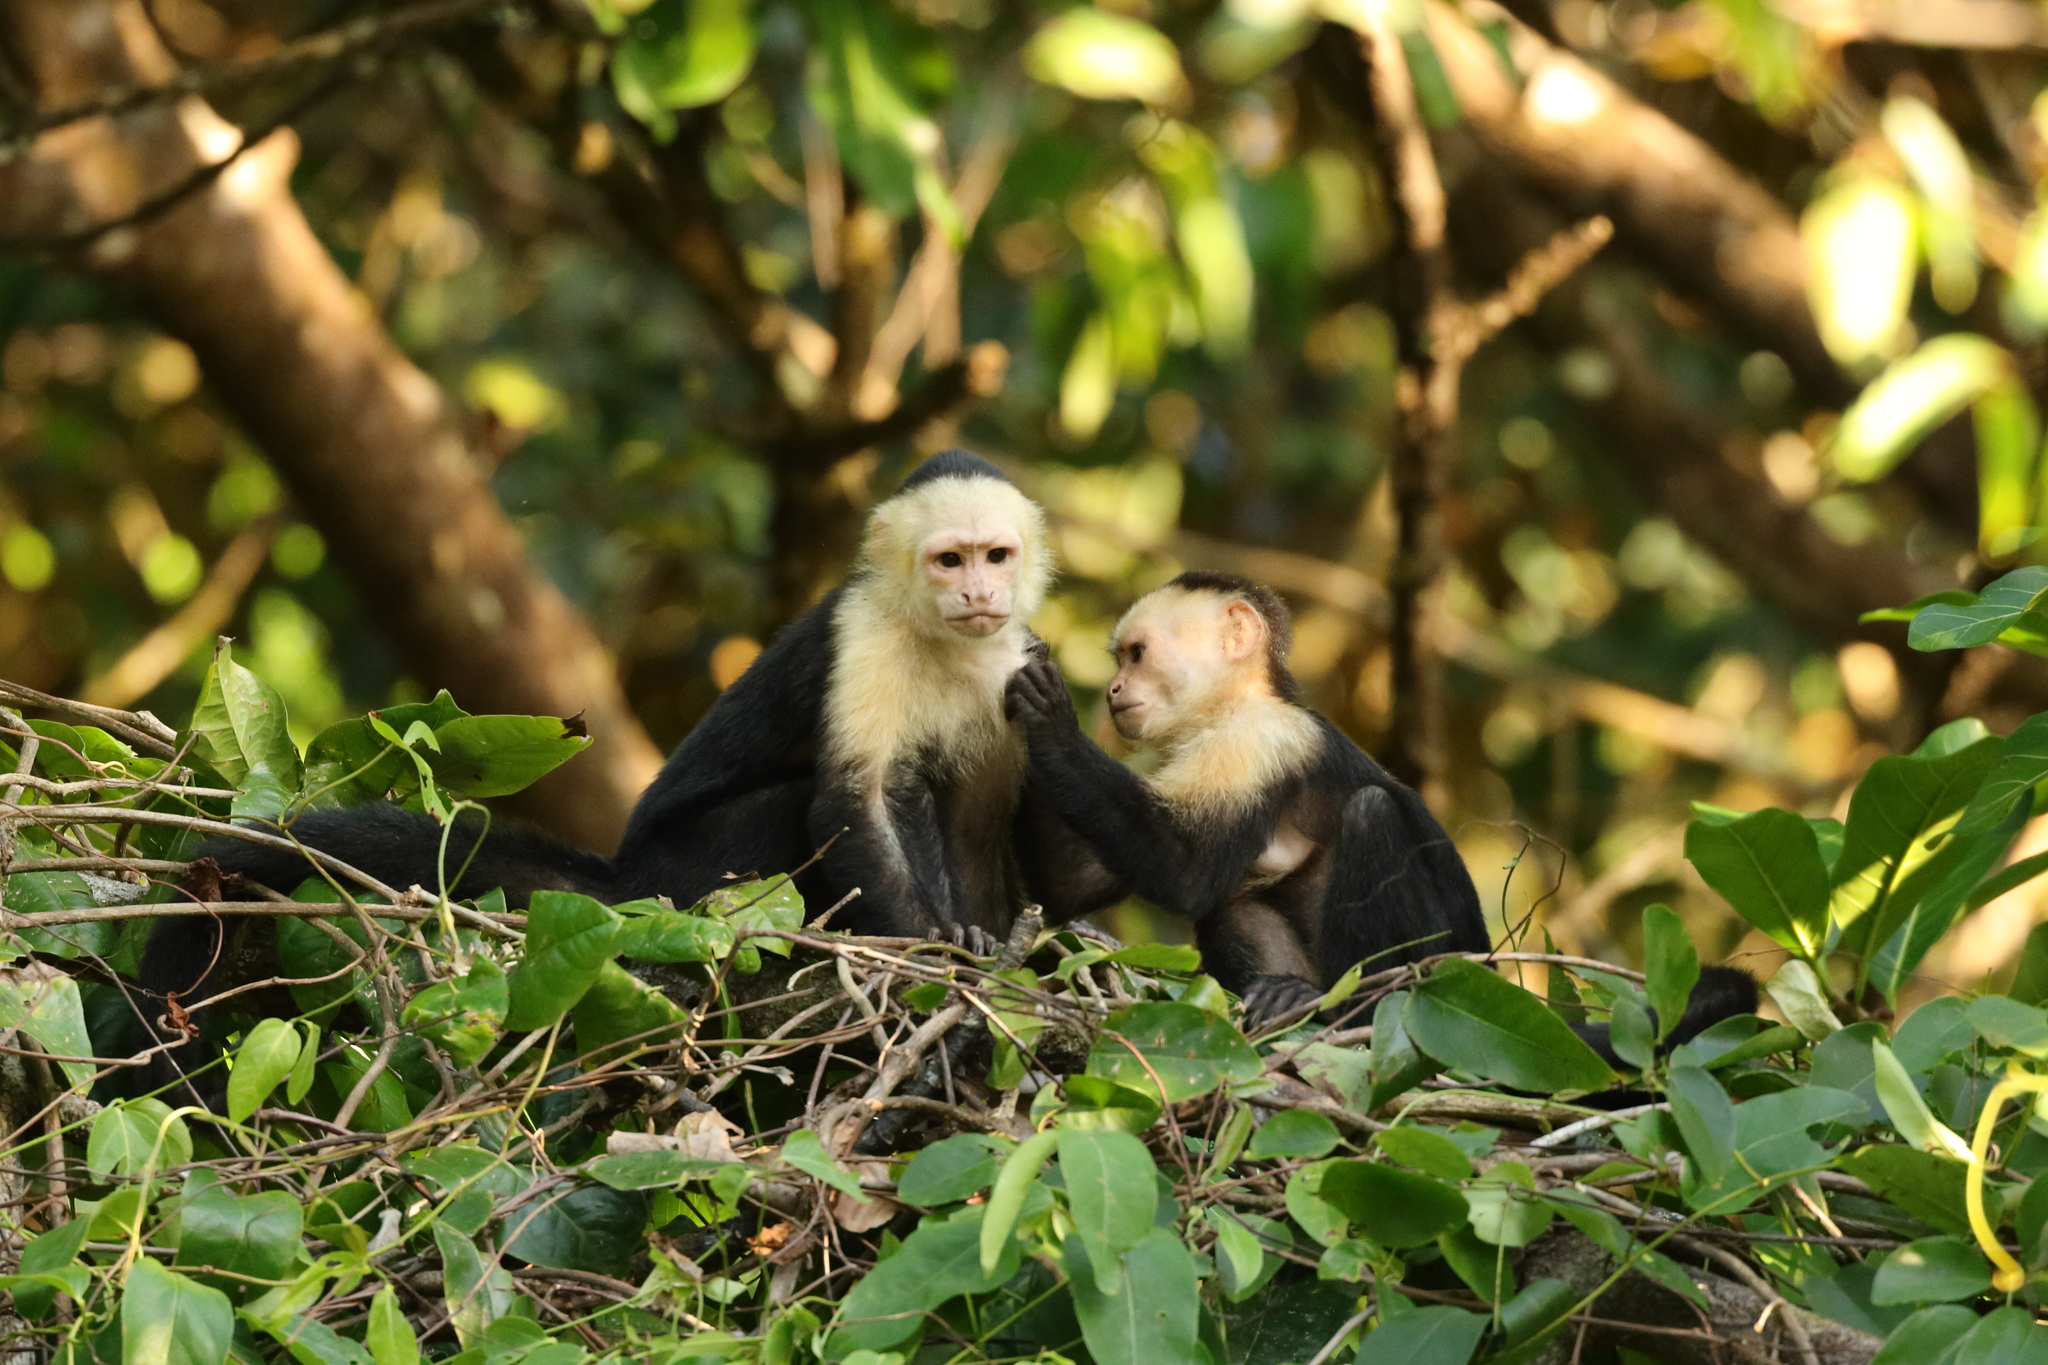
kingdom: Animalia
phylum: Chordata
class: Mammalia
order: Primates
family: Cebidae
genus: Cebus
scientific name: Cebus imitator
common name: Panamanian white-faced capuchin
